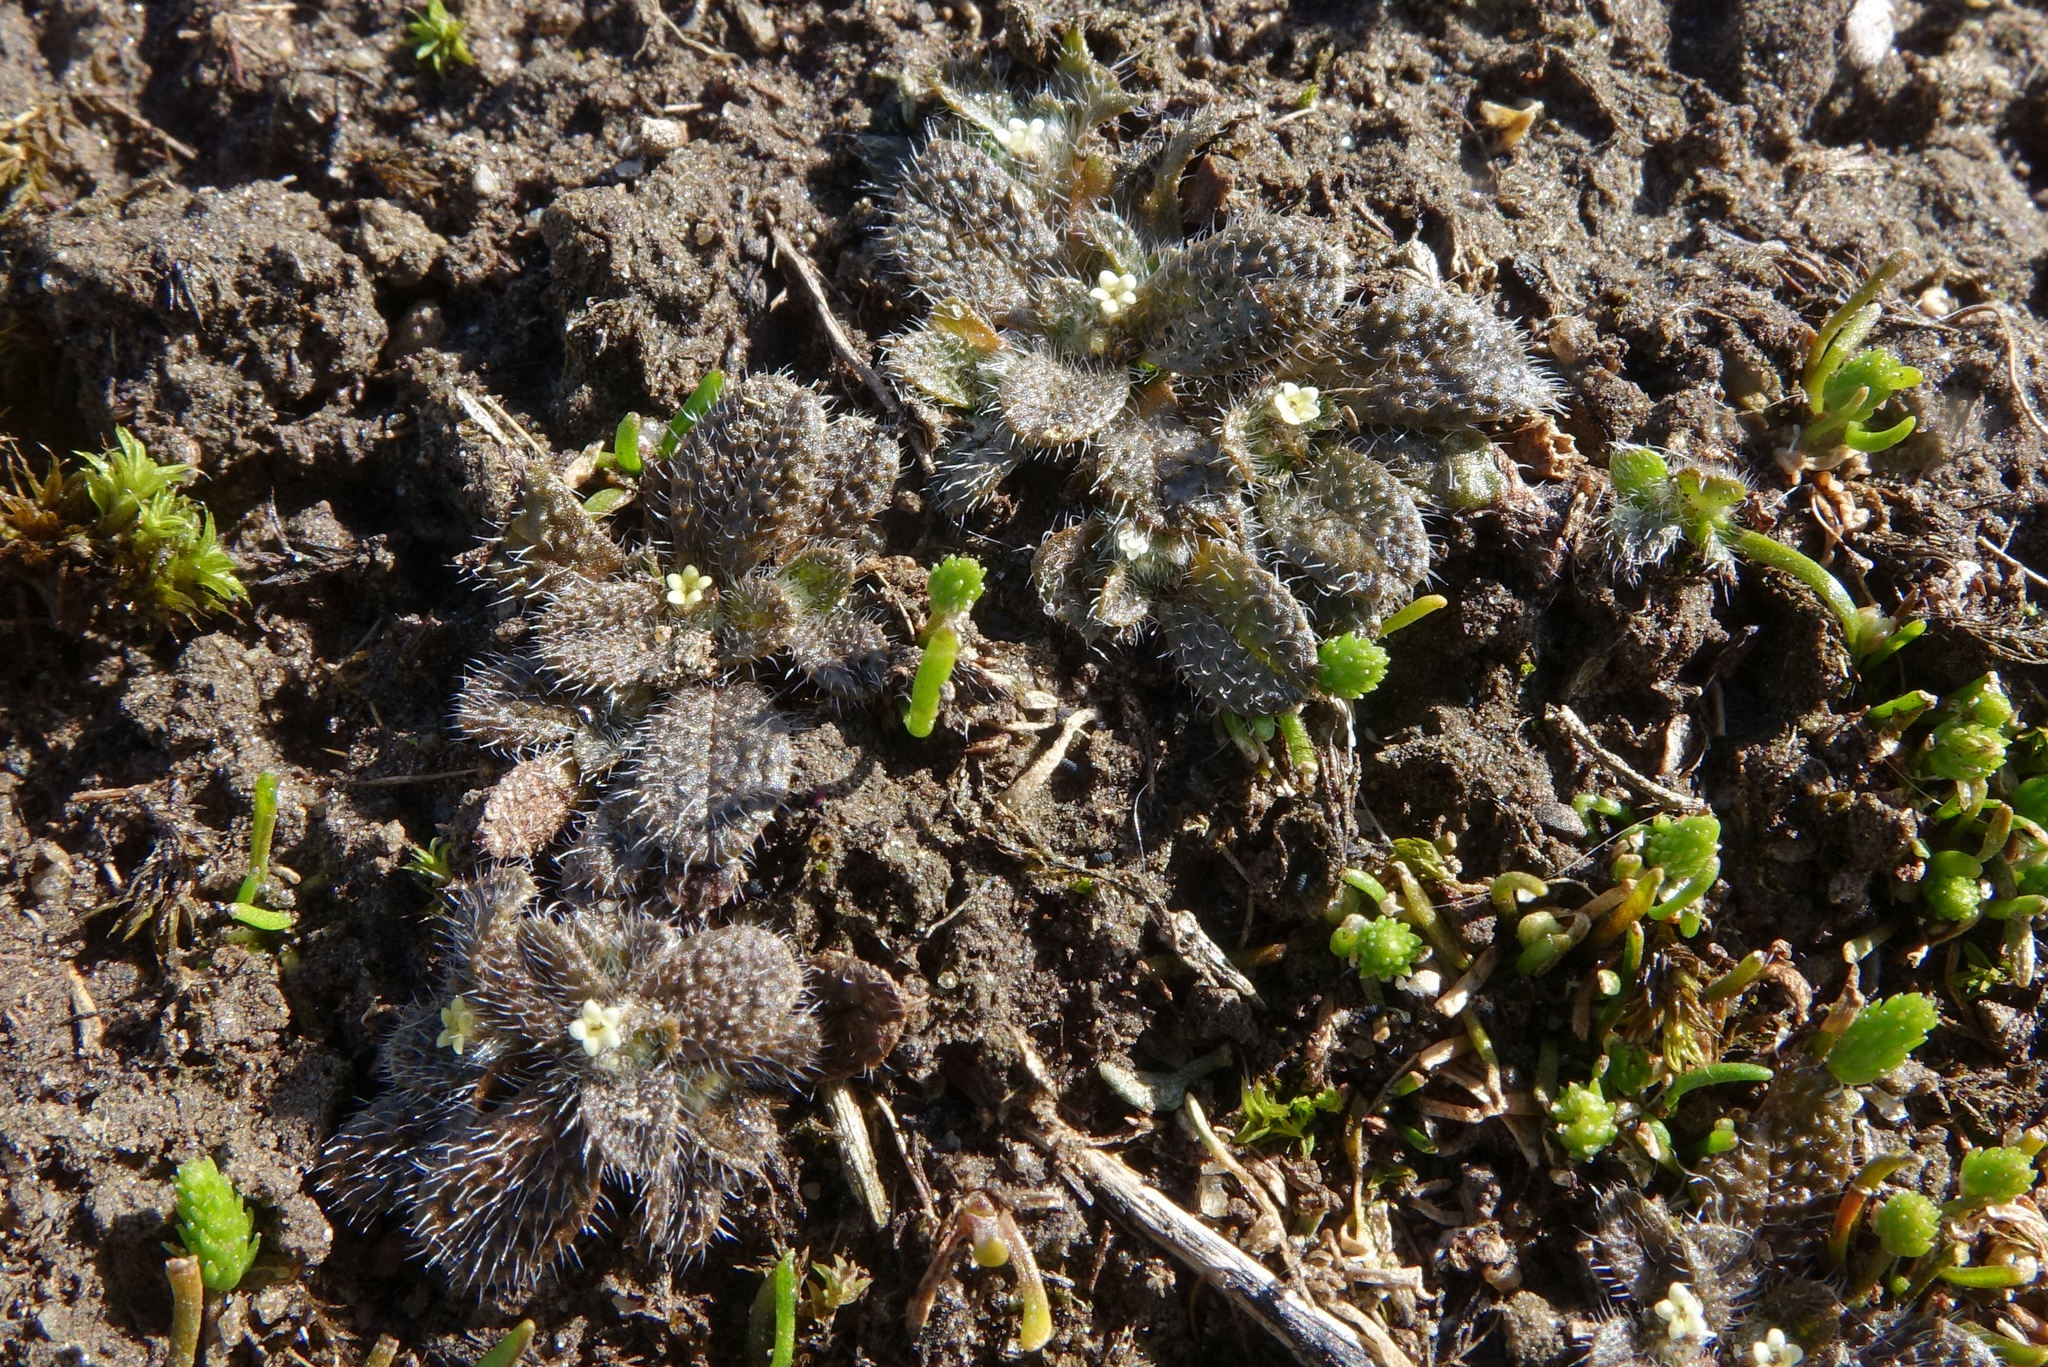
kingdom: Plantae
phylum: Tracheophyta
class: Magnoliopsida
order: Boraginales
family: Boraginaceae
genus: Myosotis
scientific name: Myosotis brevis
